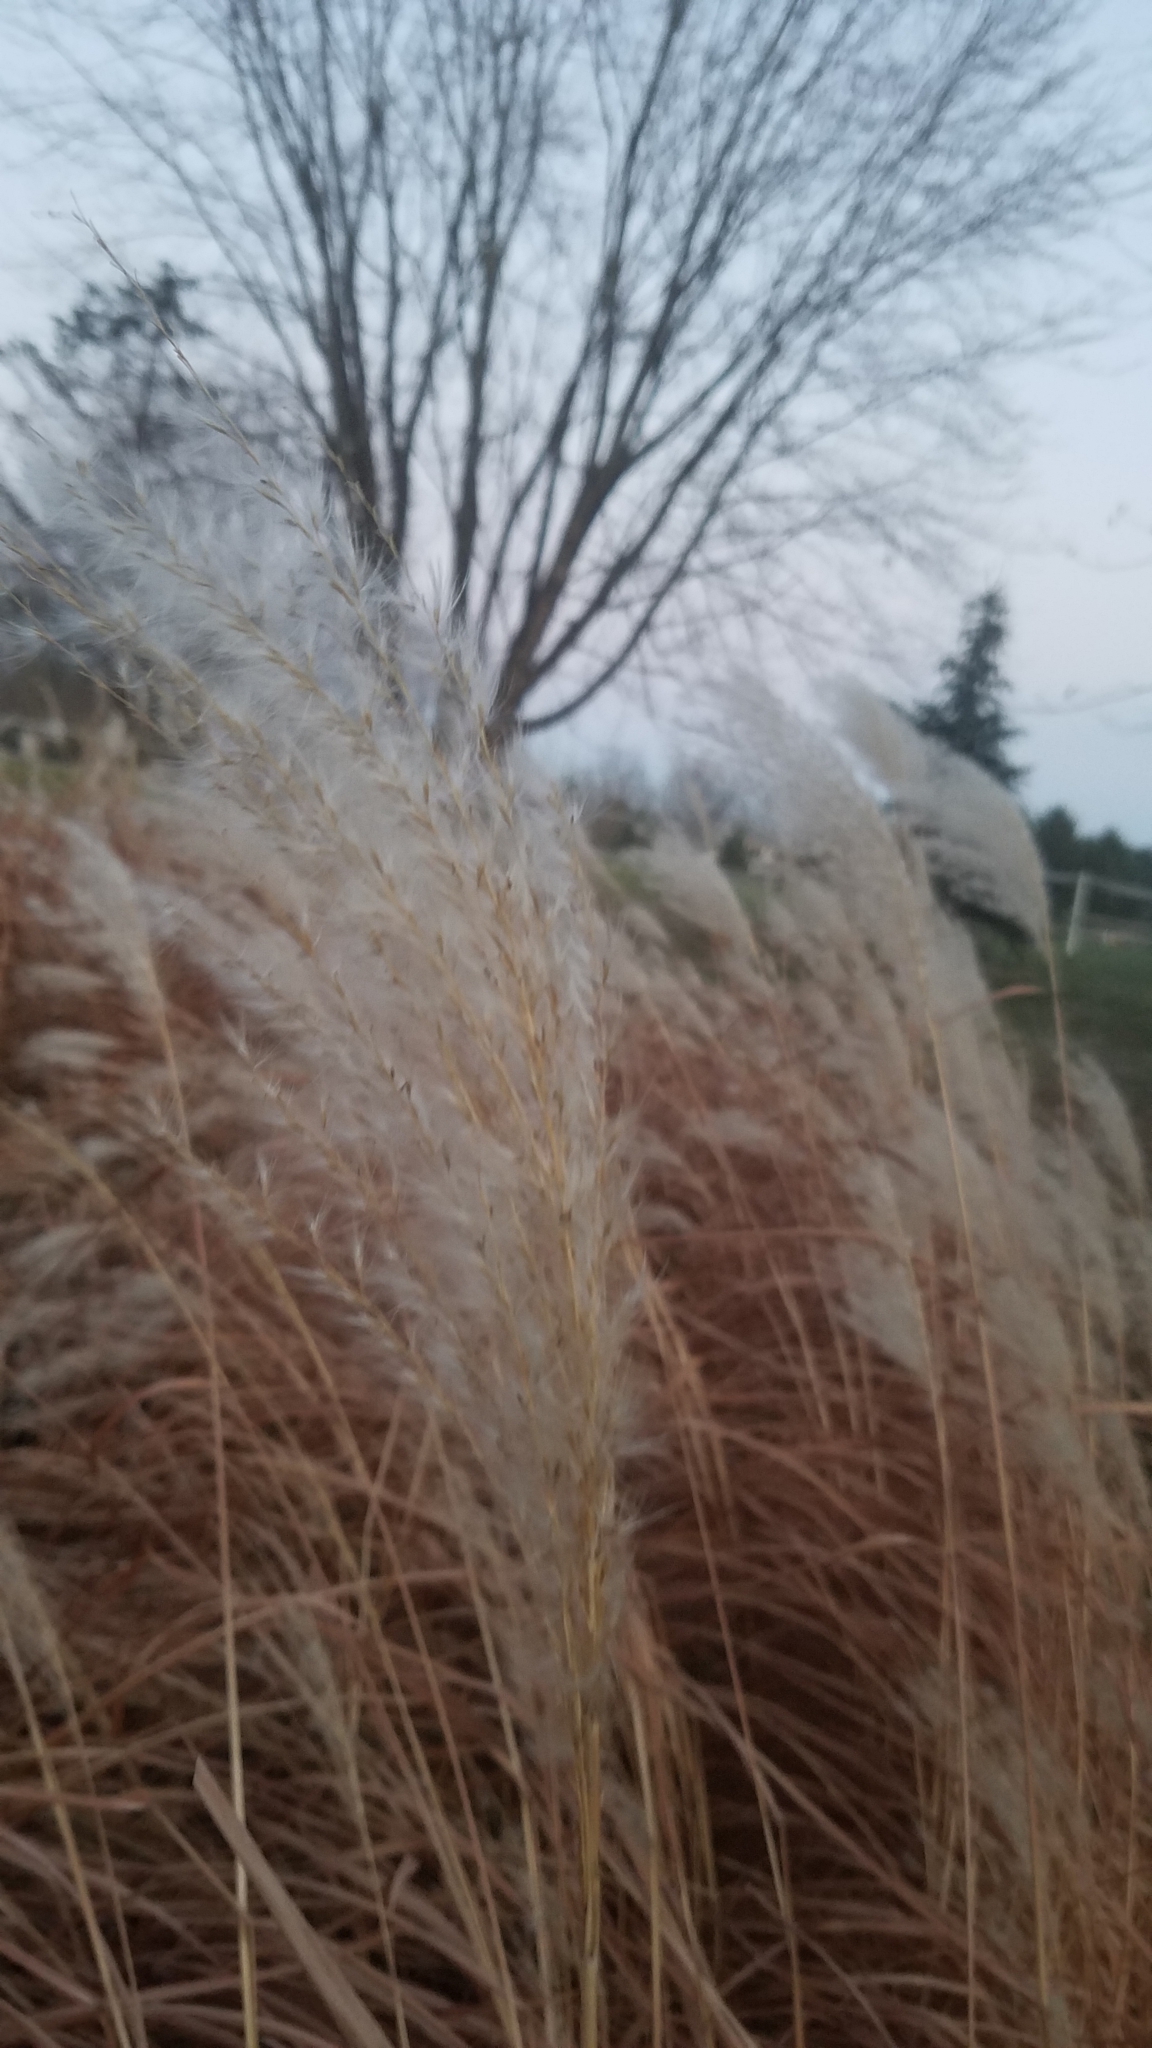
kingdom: Plantae
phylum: Tracheophyta
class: Liliopsida
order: Poales
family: Poaceae
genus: Miscanthus
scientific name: Miscanthus sacchariflorus
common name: Amur silver grass
